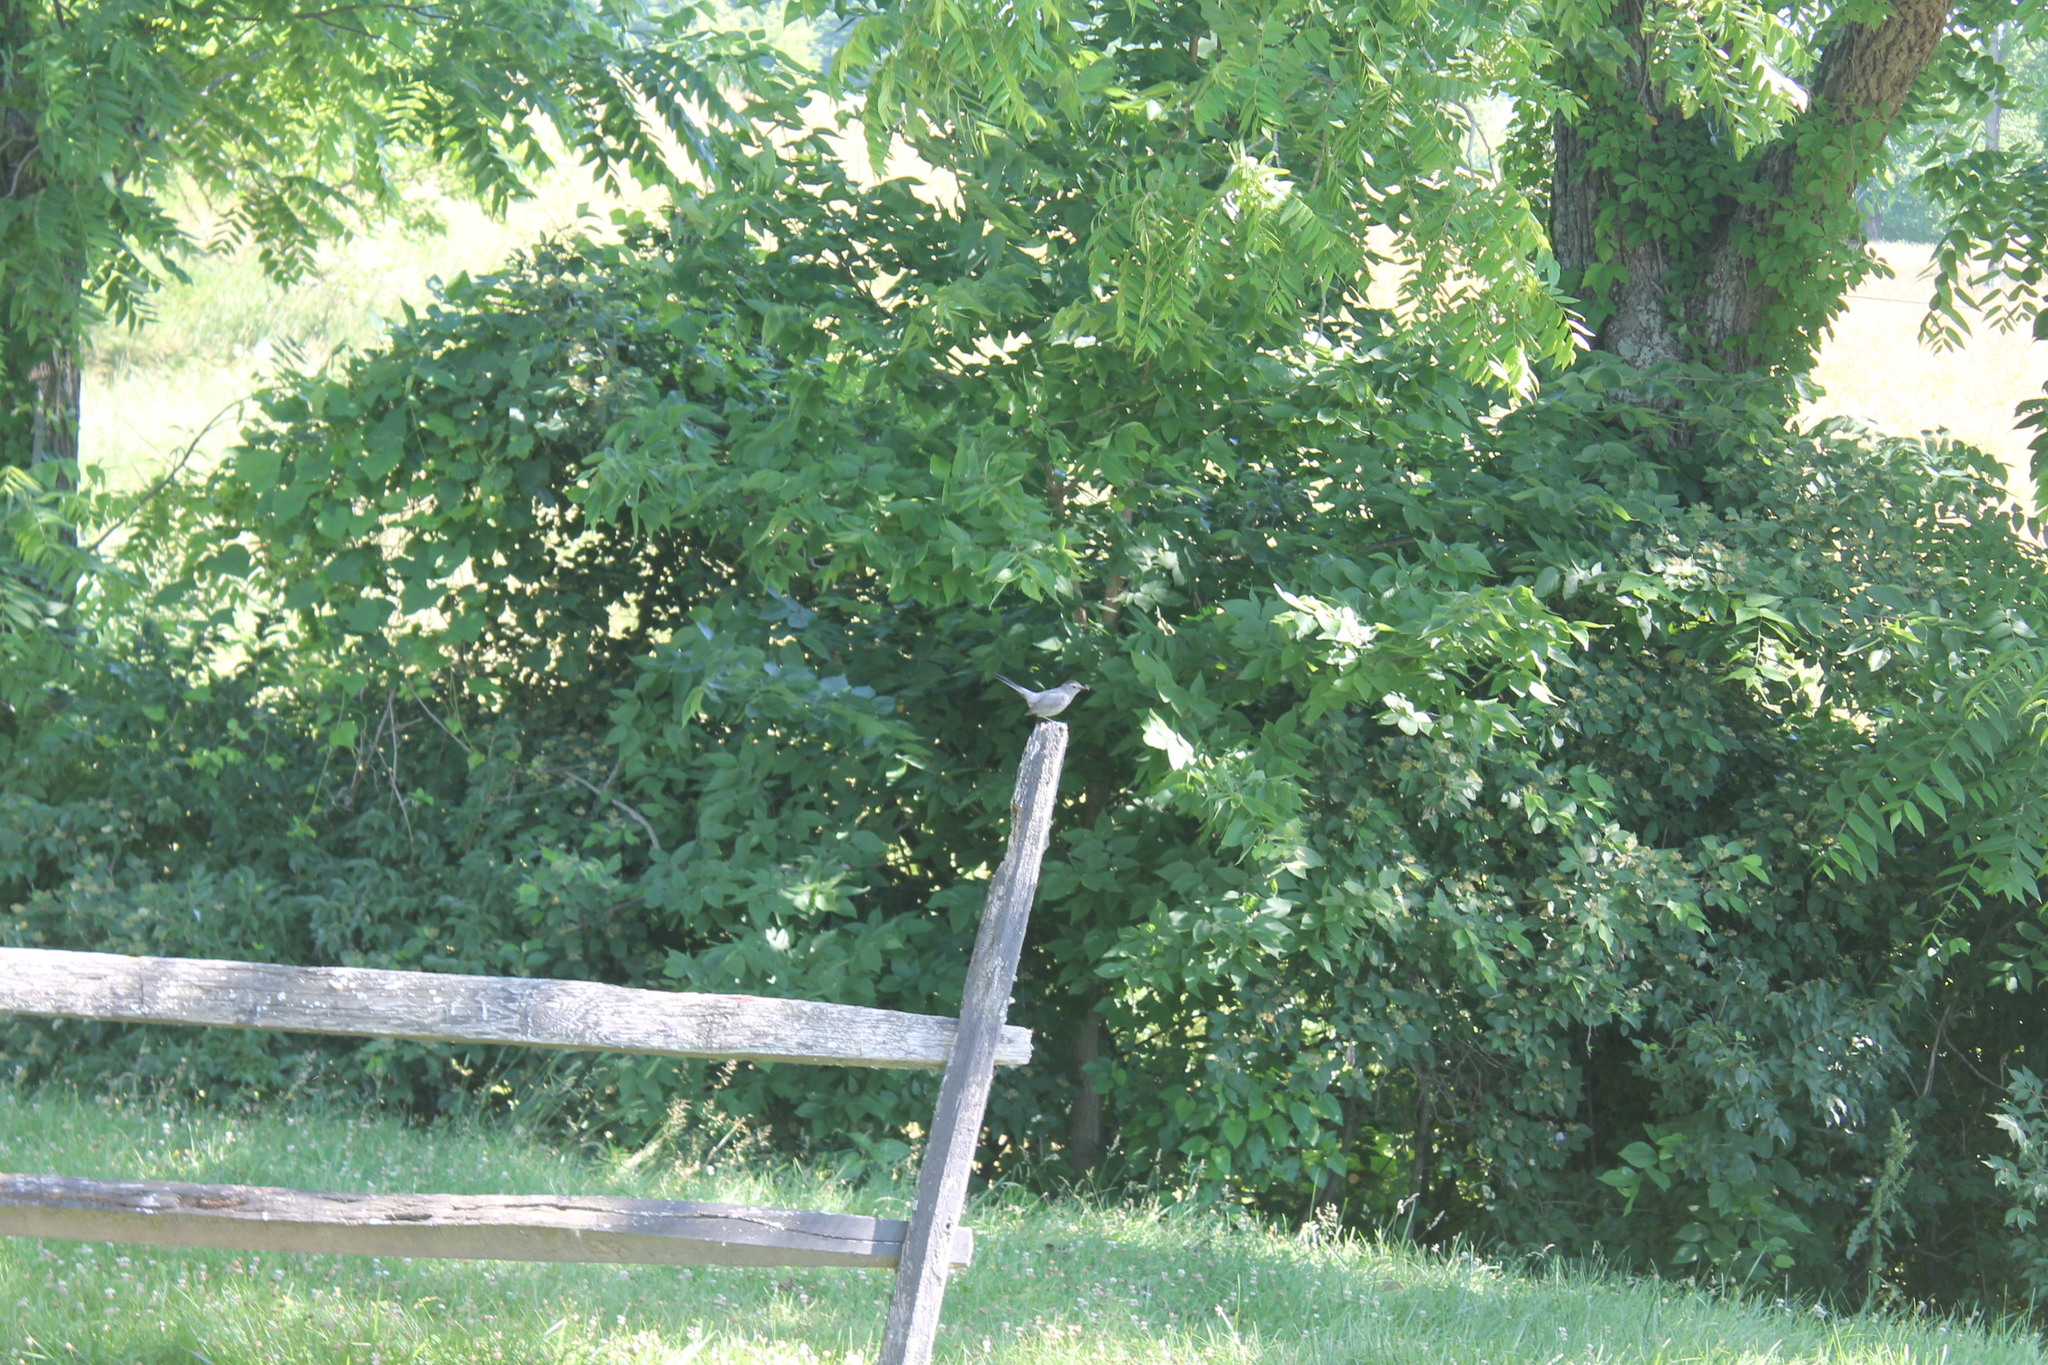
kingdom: Animalia
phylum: Chordata
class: Aves
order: Passeriformes
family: Mimidae
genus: Dumetella
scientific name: Dumetella carolinensis
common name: Gray catbird
